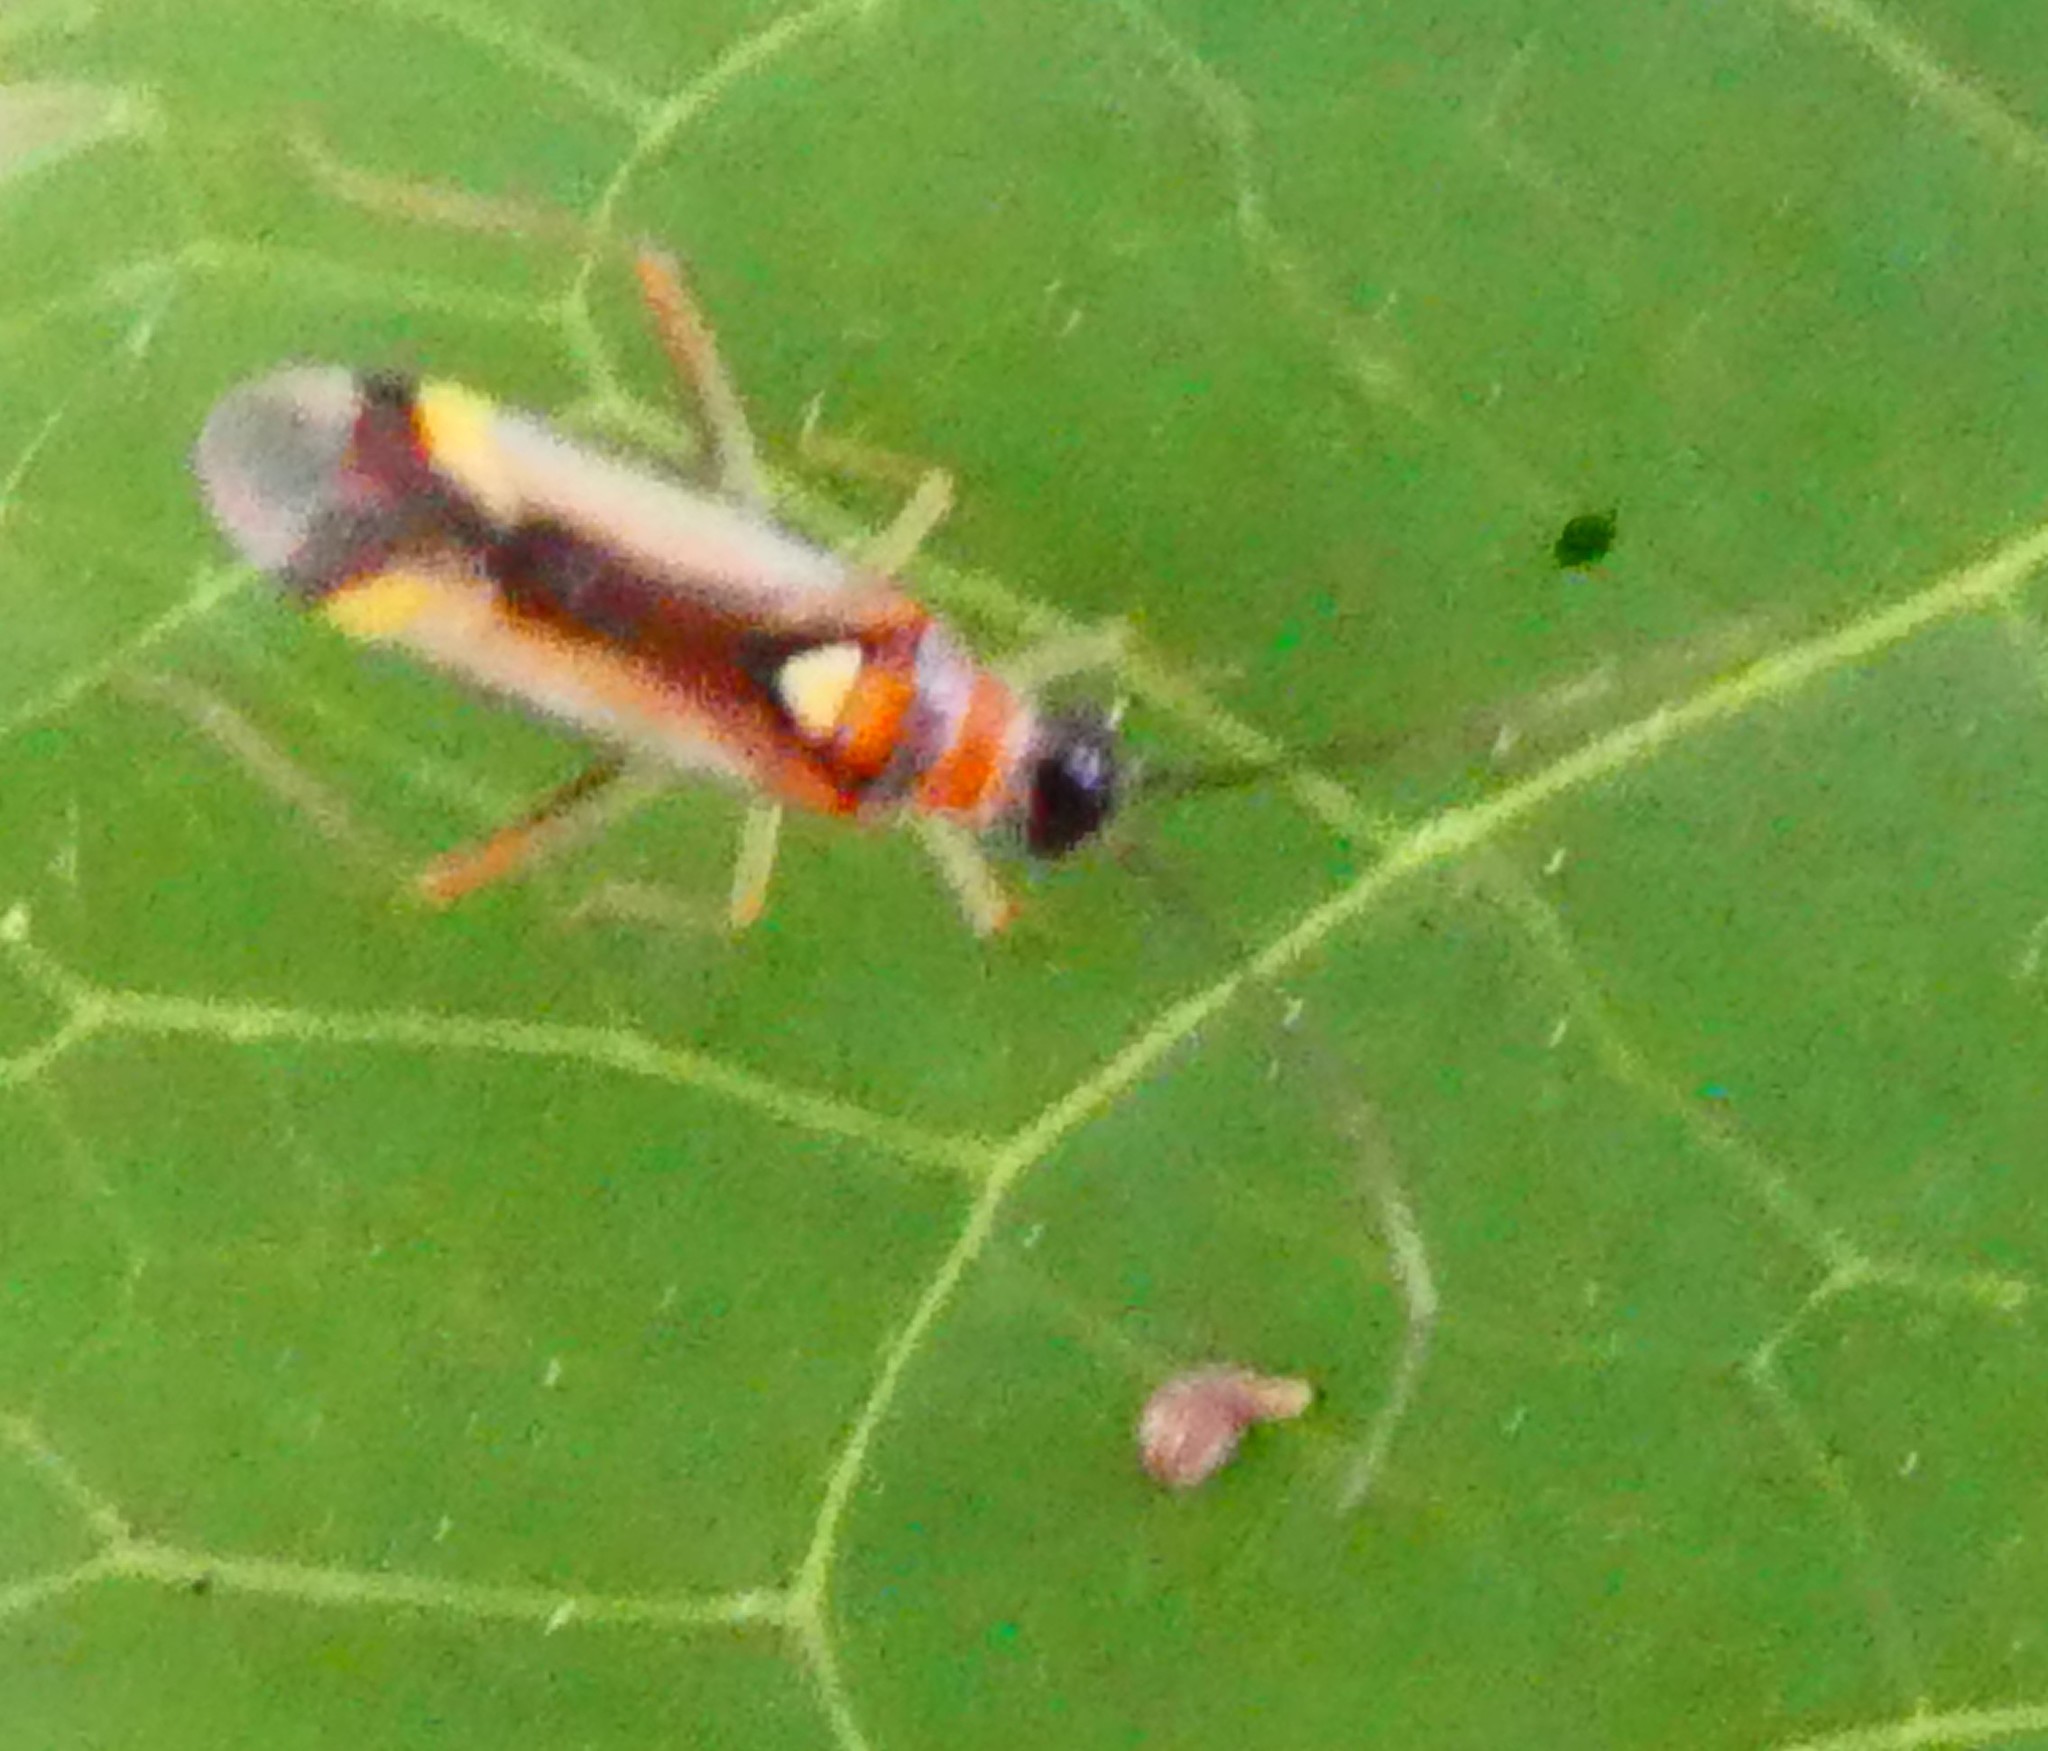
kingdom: Animalia
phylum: Arthropoda
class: Insecta
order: Hemiptera
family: Miridae
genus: Campyloneura
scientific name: Campyloneura virgula
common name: Predatory bug
